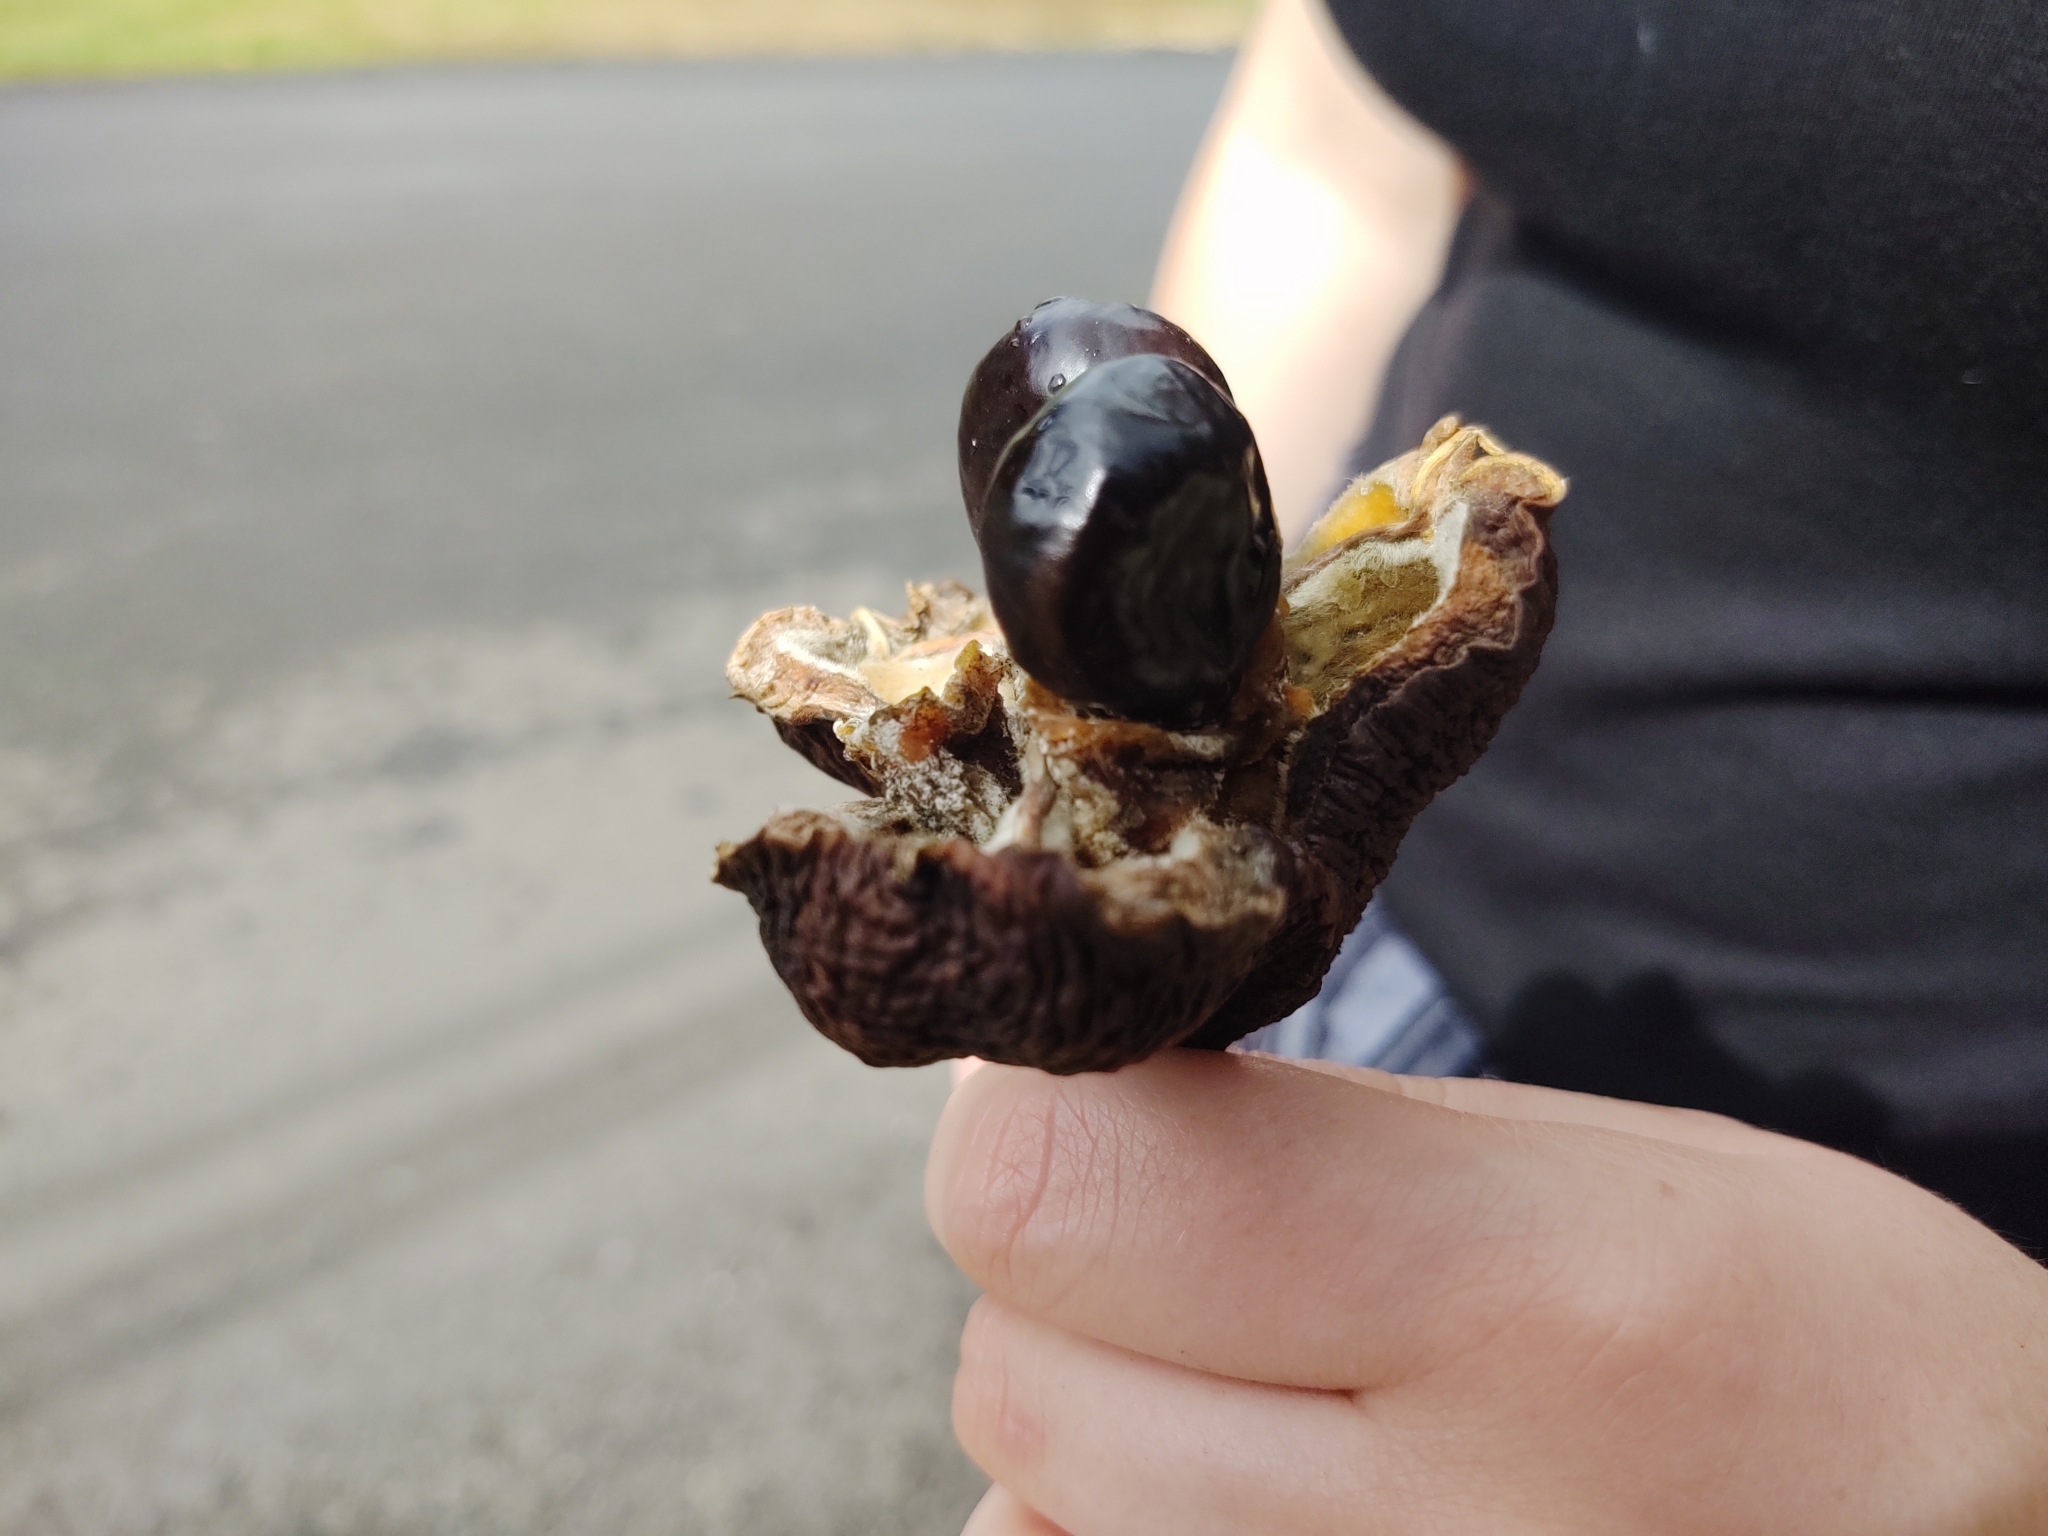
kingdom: Plantae
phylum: Tracheophyta
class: Magnoliopsida
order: Sapindales
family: Sapindaceae
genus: Blighia
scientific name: Blighia sapida
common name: Akee
